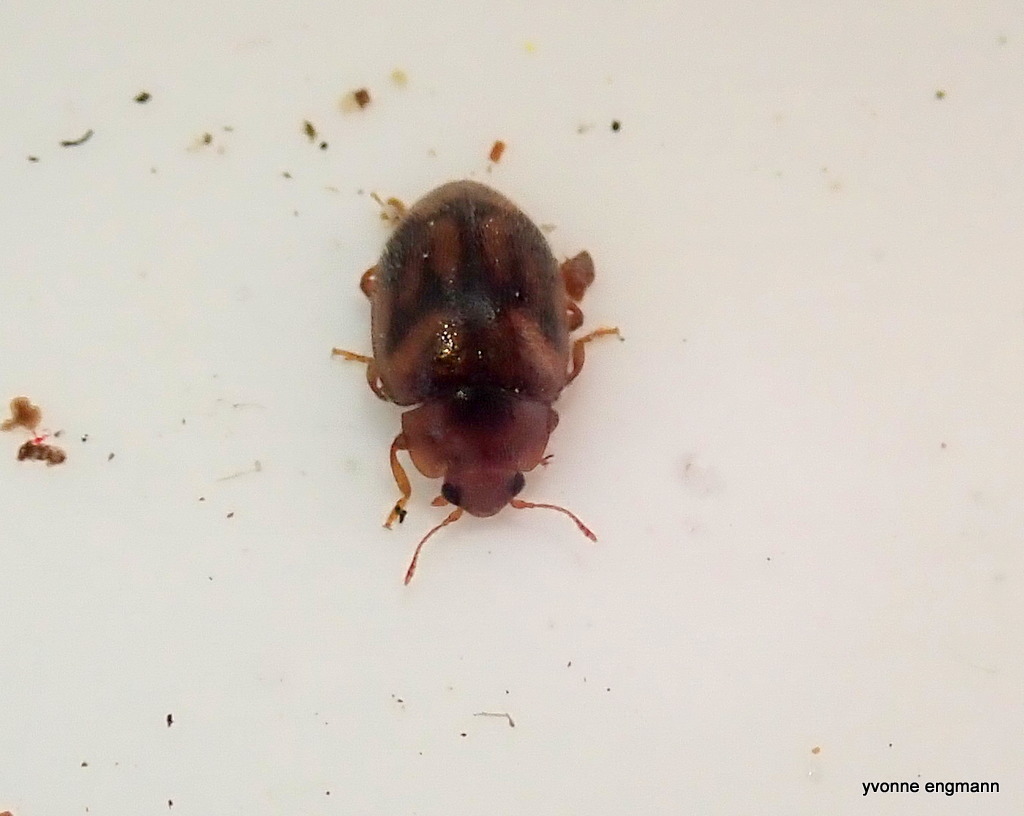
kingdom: Animalia
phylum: Arthropoda
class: Insecta
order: Coleoptera
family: Coccinellidae
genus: Rhyzobius
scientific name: Rhyzobius chrysomeloides
